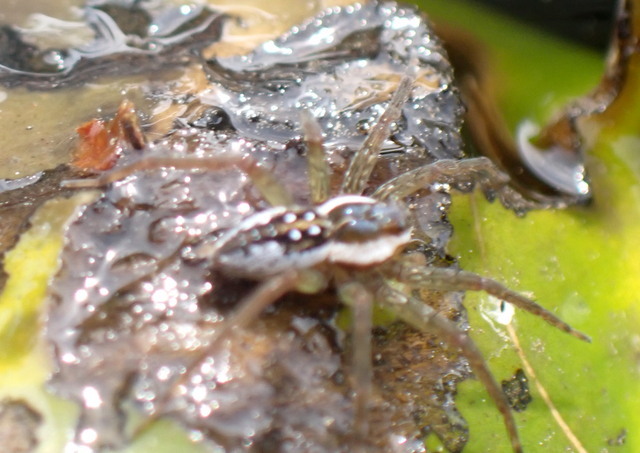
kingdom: Animalia
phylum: Arthropoda
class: Arachnida
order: Araneae
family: Pisauridae
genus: Dolomedes
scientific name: Dolomedes triton
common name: Six-spotted fishing spider
